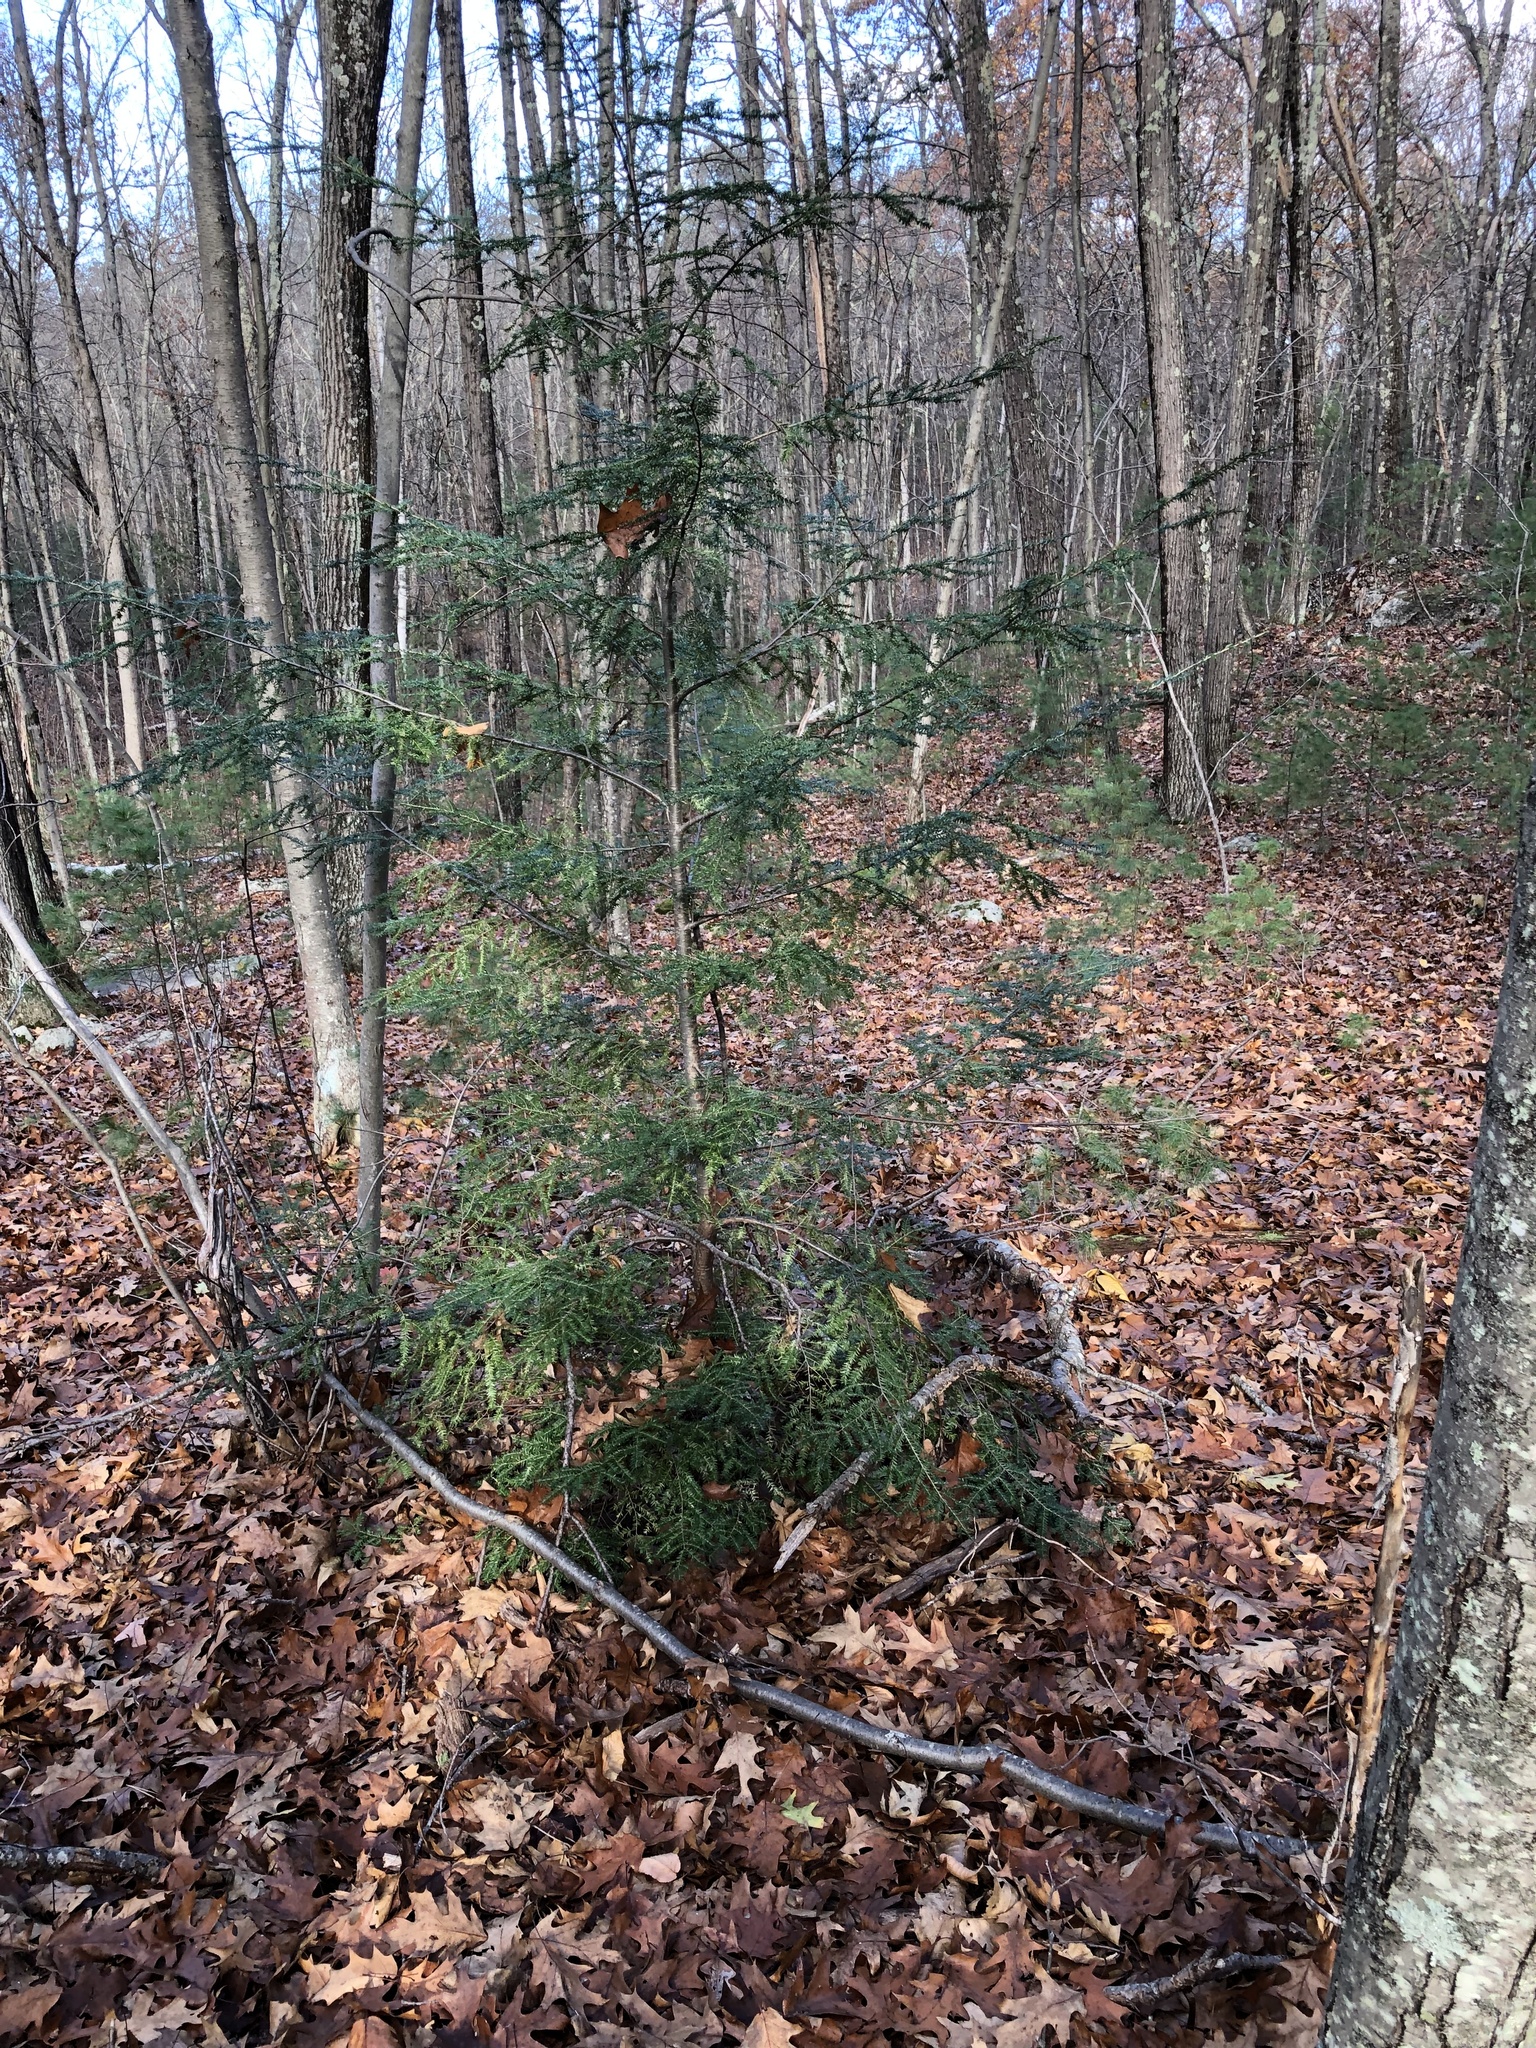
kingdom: Plantae
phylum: Tracheophyta
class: Pinopsida
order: Pinales
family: Pinaceae
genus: Tsuga
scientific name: Tsuga canadensis
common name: Eastern hemlock
